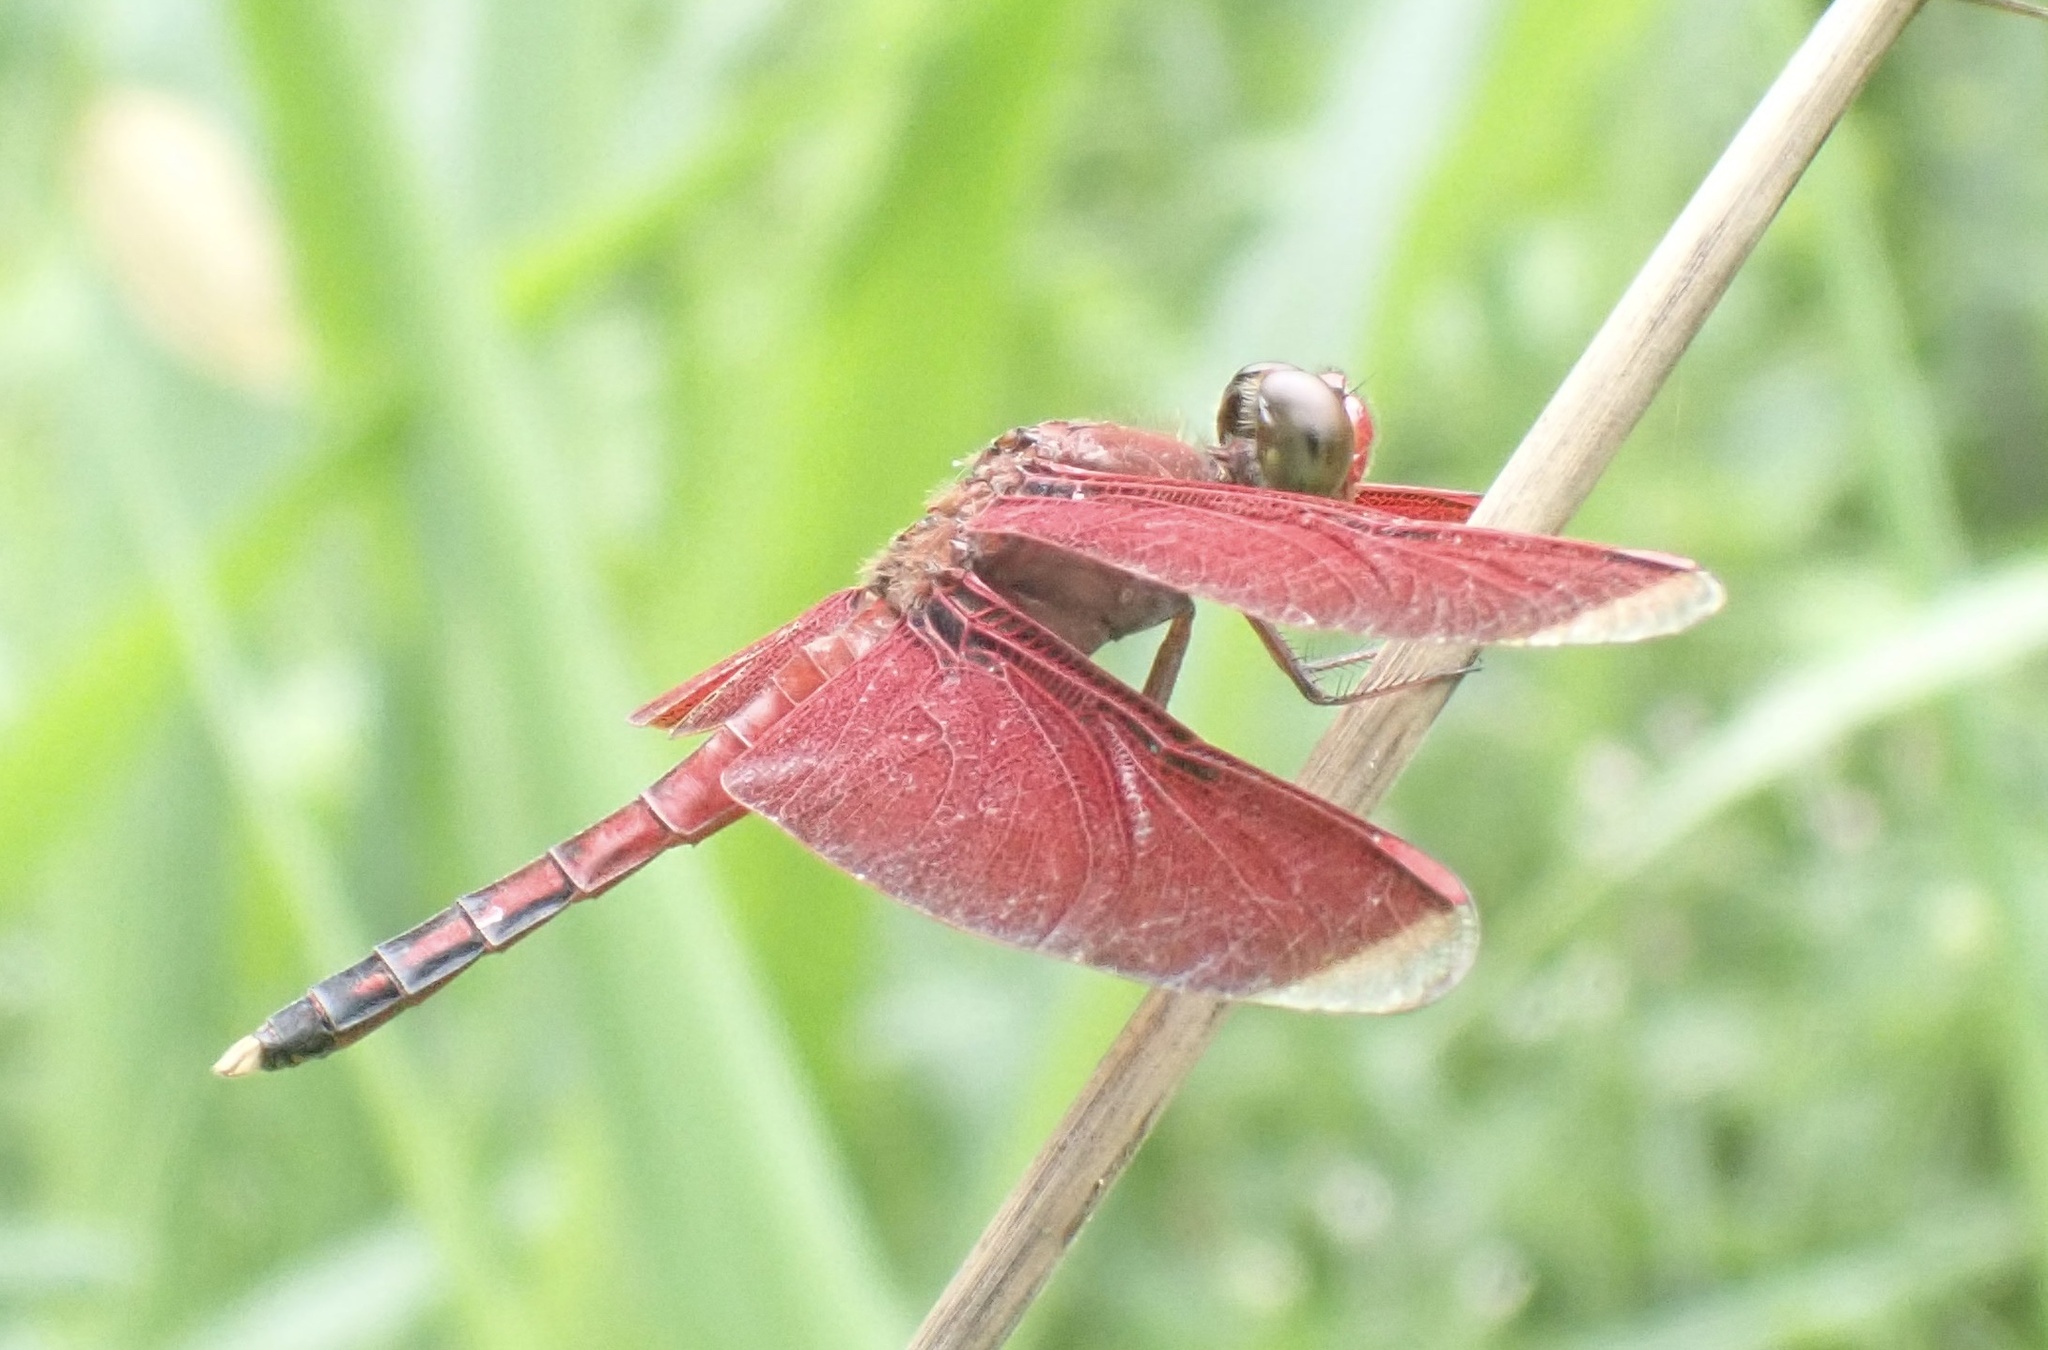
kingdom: Animalia
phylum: Arthropoda
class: Insecta
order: Odonata
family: Libellulidae
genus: Neurothemis
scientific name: Neurothemis manadensis
